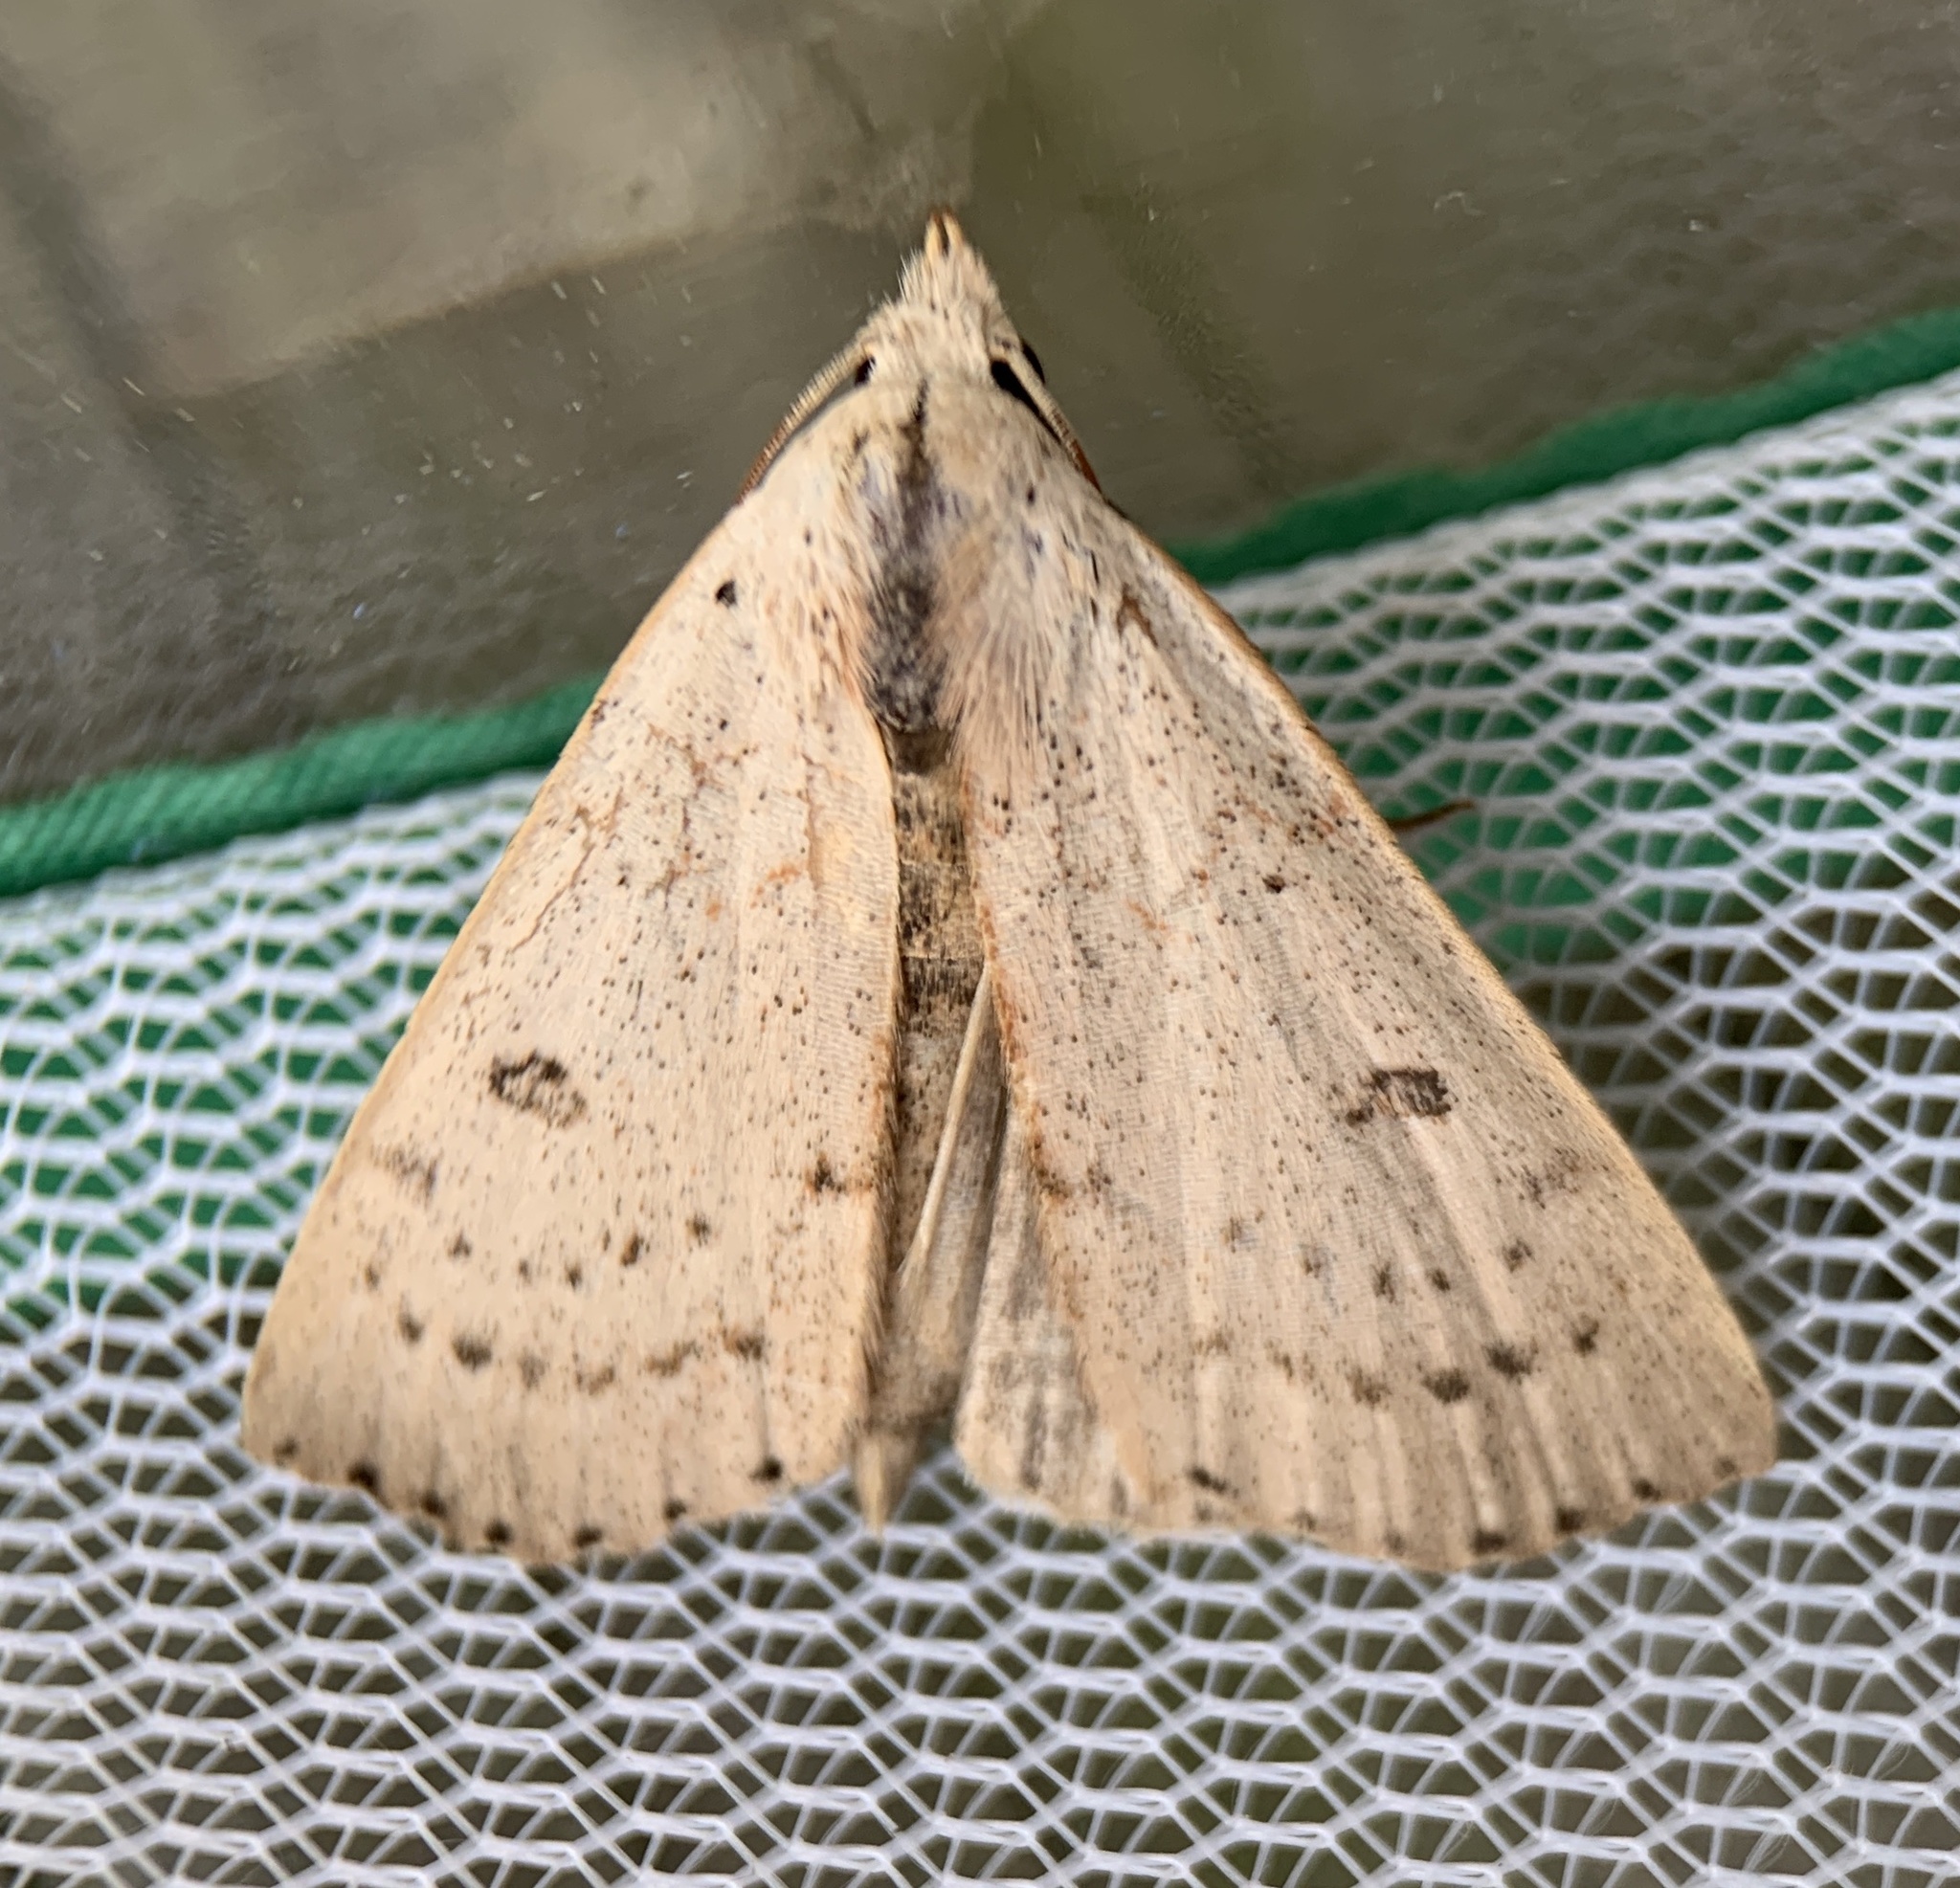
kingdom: Animalia
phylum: Arthropoda
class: Insecta
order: Lepidoptera
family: Erebidae
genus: Scolecocampa
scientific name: Scolecocampa liburna
